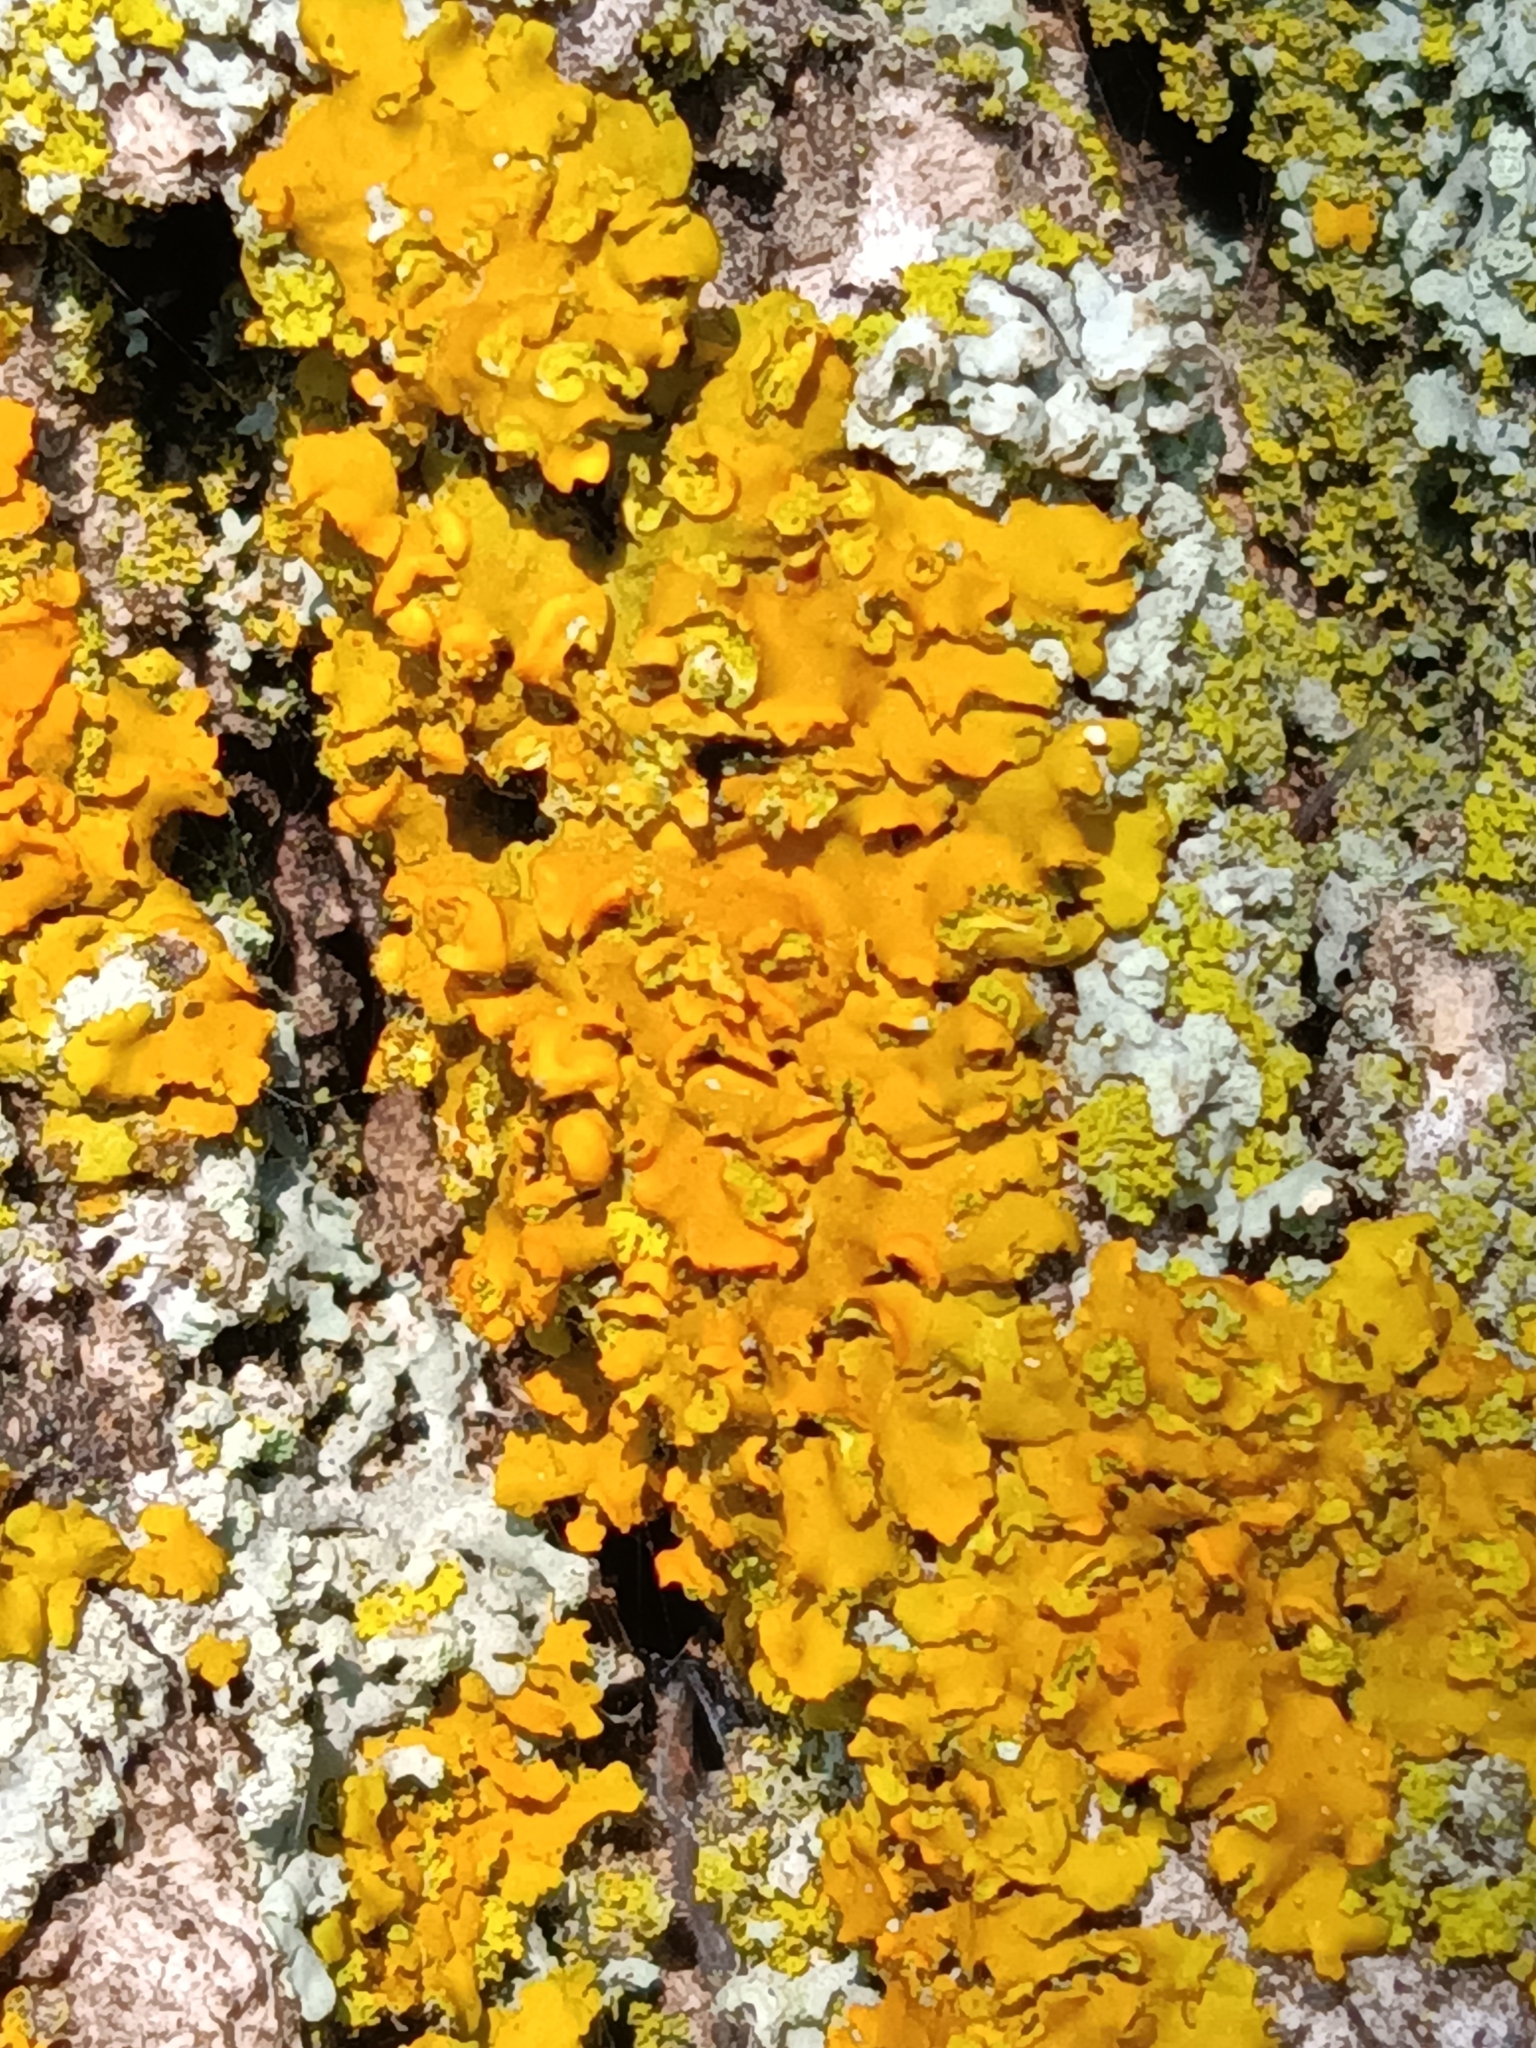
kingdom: Fungi
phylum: Ascomycota
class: Lecanoromycetes
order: Teloschistales
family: Teloschistaceae
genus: Oxneria
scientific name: Oxneria fallax
